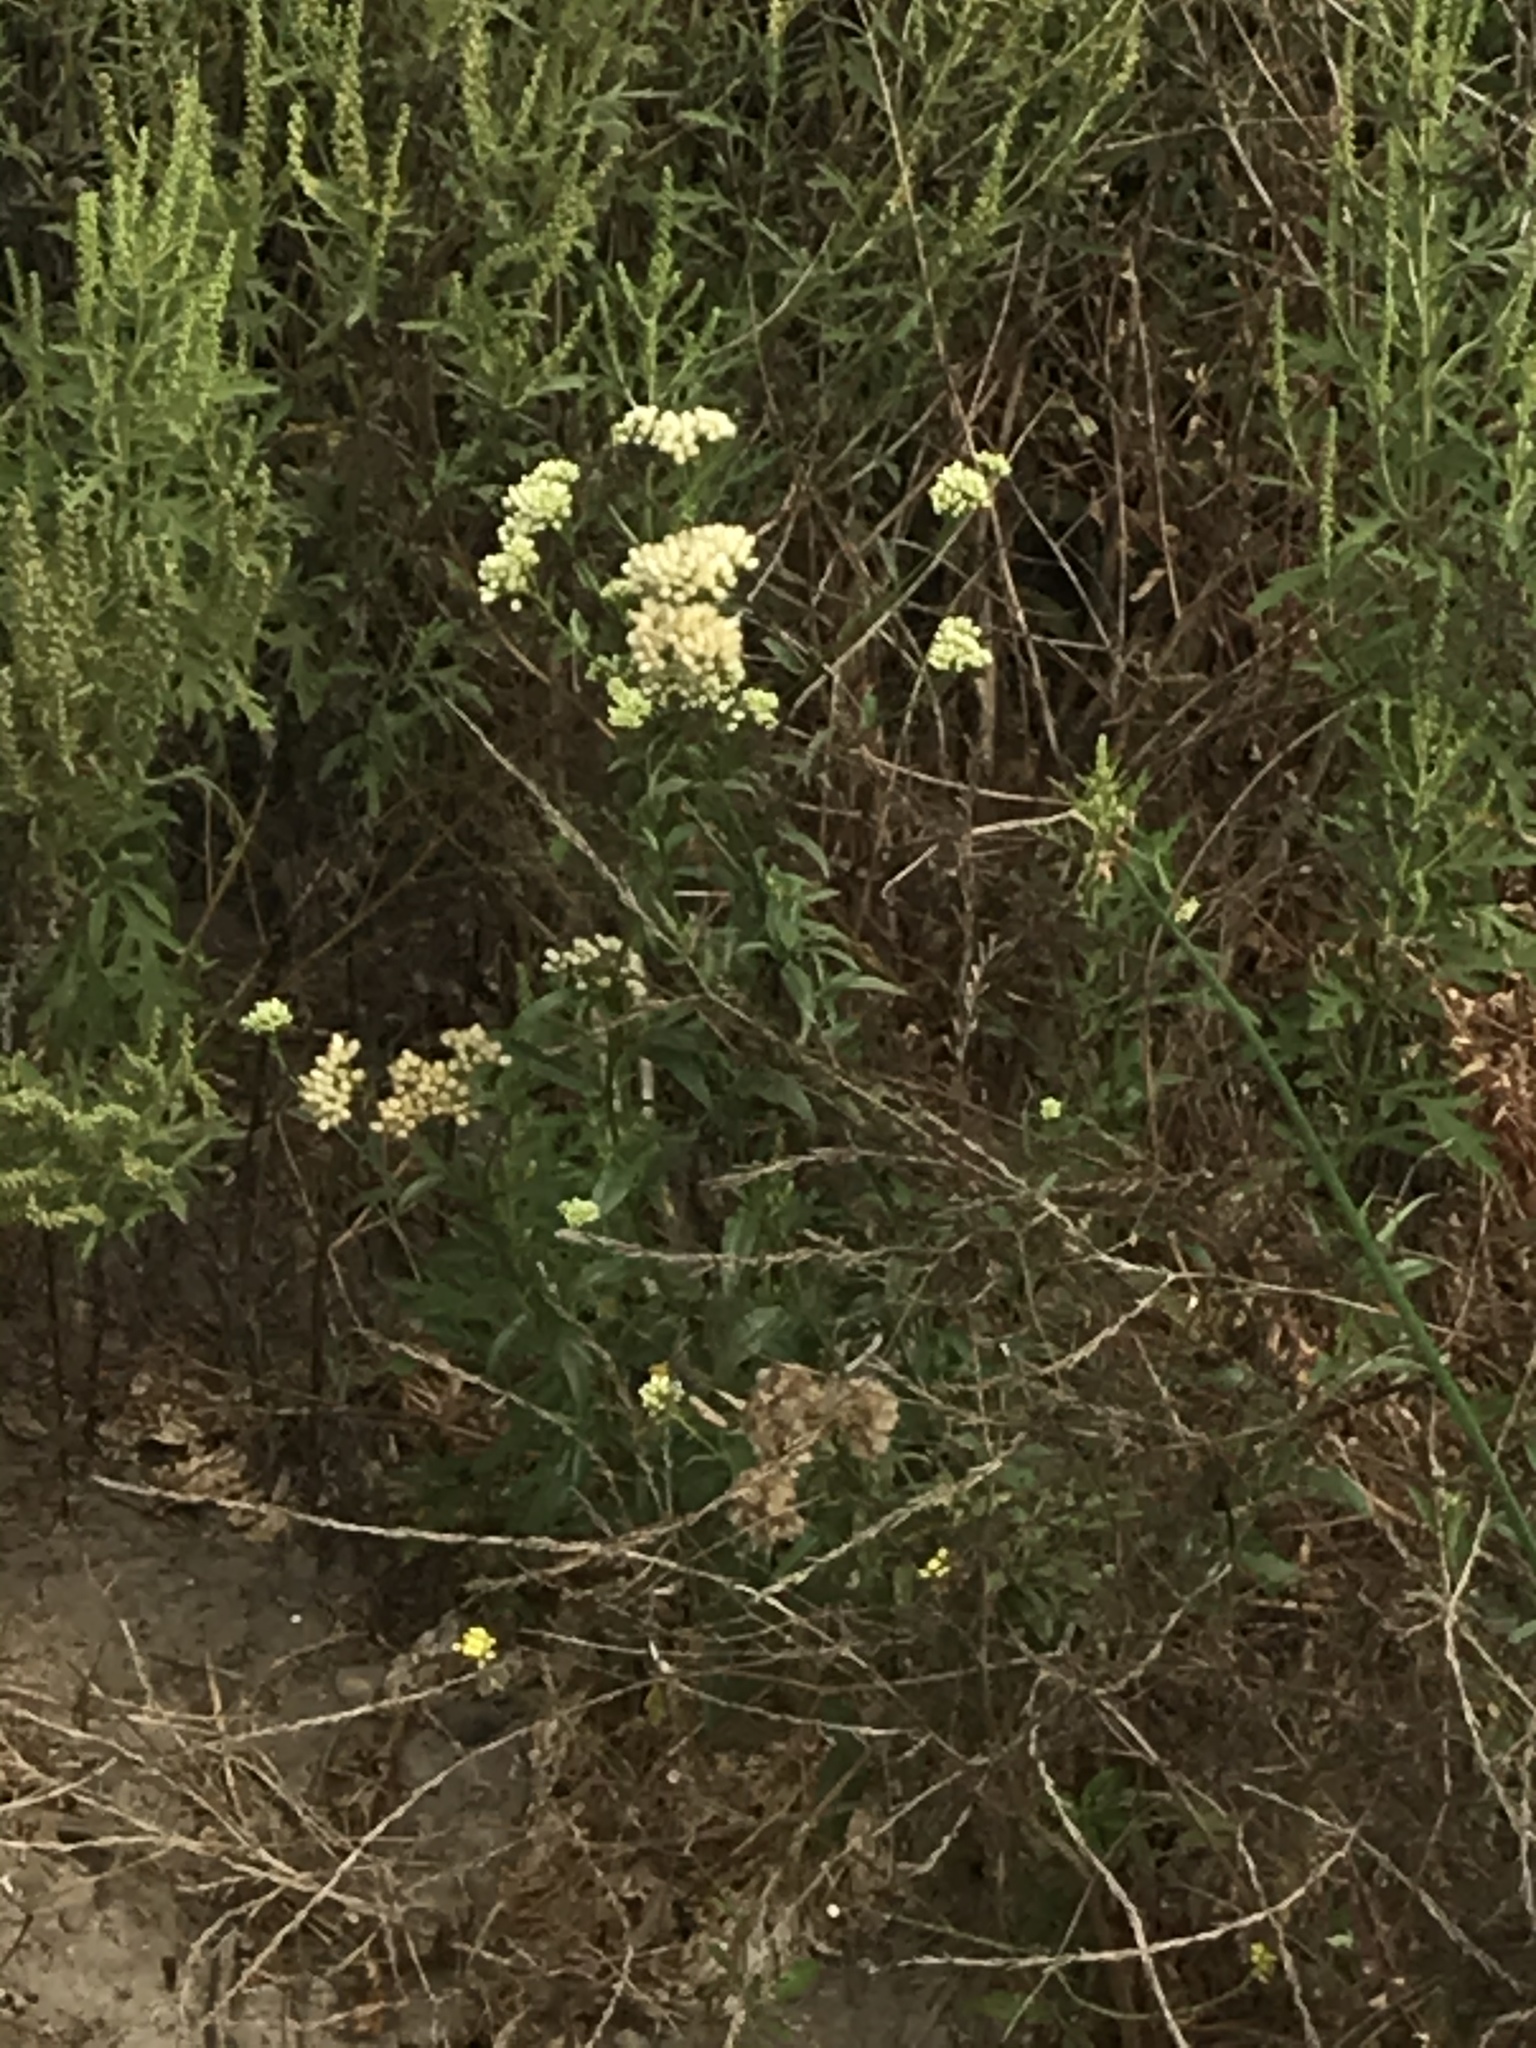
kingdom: Plantae
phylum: Tracheophyta
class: Magnoliopsida
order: Asterales
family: Asteraceae
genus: Baccharis
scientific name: Baccharis glutinosa
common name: Saltmarsh baccharis
